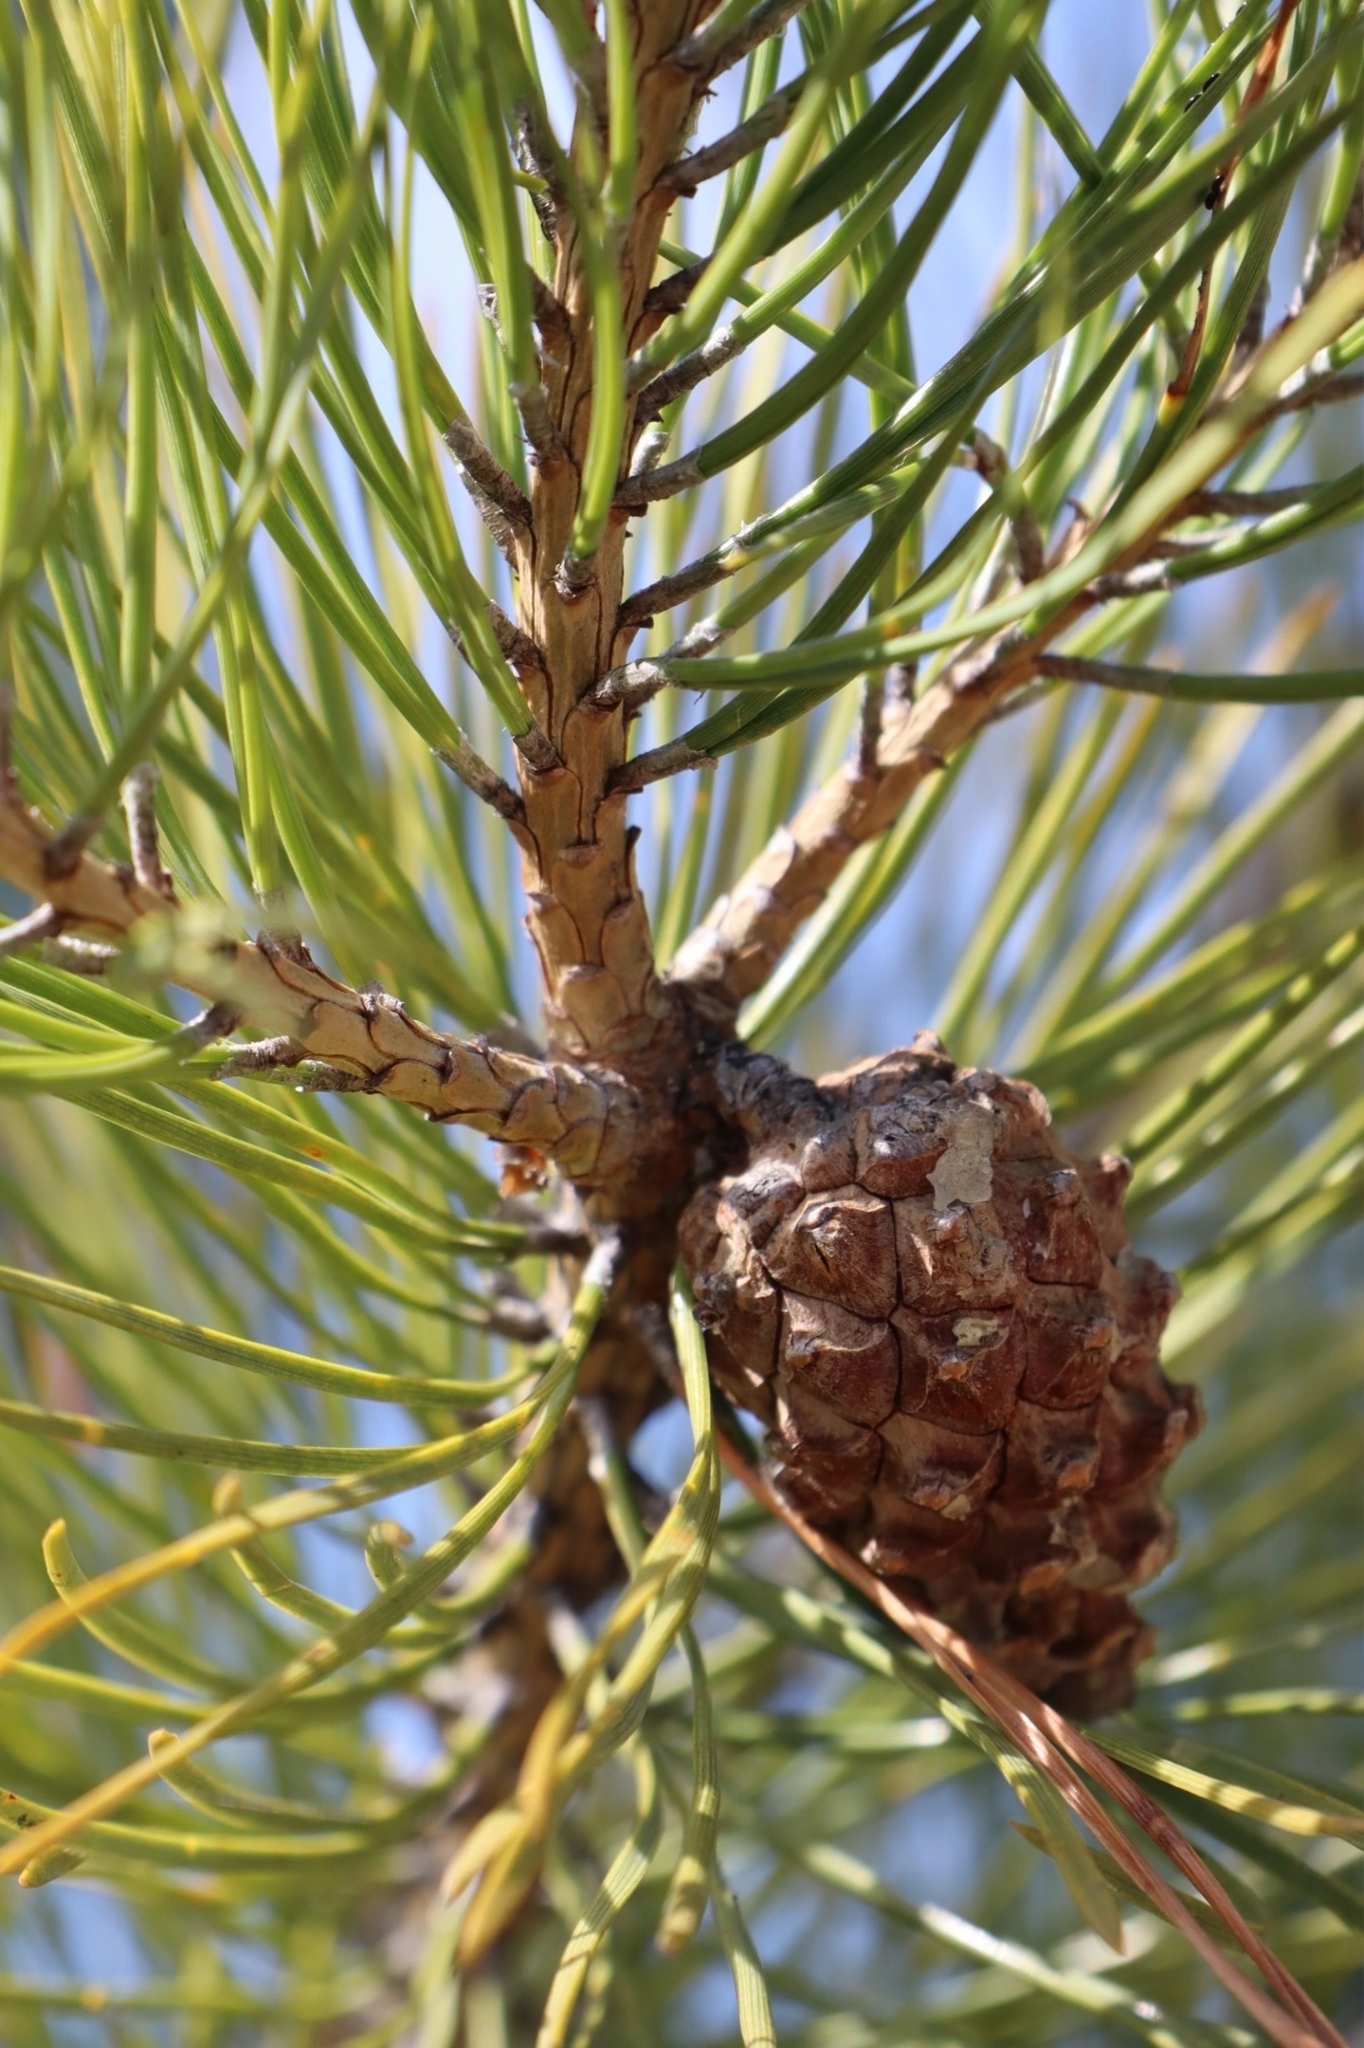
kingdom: Plantae
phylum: Tracheophyta
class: Pinopsida
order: Pinales
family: Pinaceae
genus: Pinus
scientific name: Pinus sylvestris
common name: Scots pine
